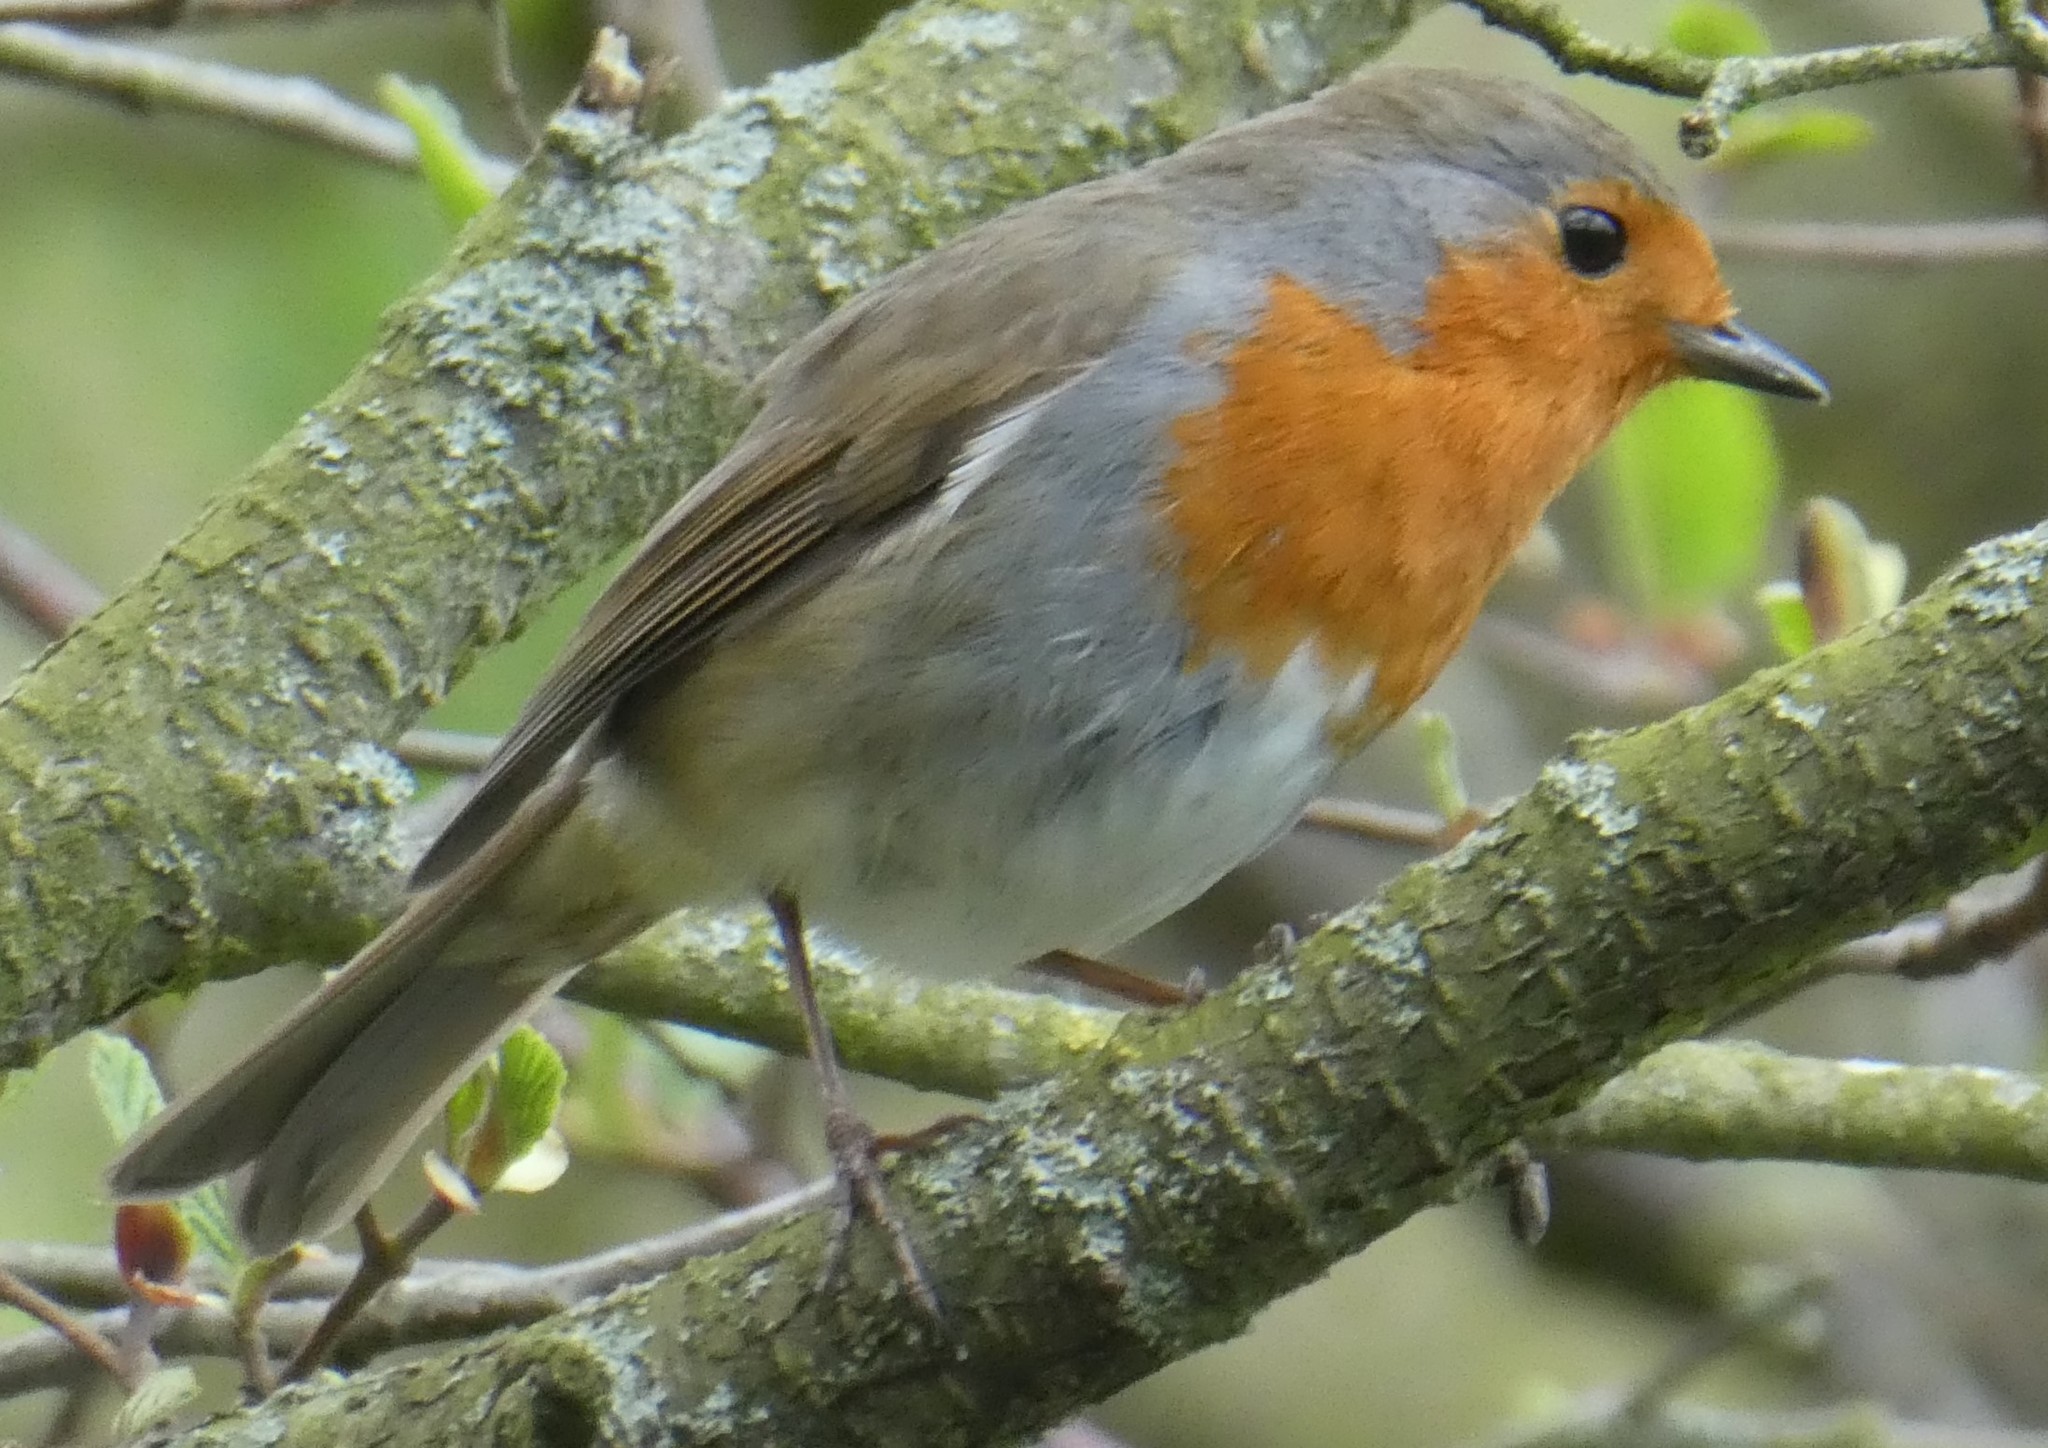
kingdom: Animalia
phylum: Chordata
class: Aves
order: Passeriformes
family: Muscicapidae
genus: Erithacus
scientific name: Erithacus rubecula
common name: European robin
